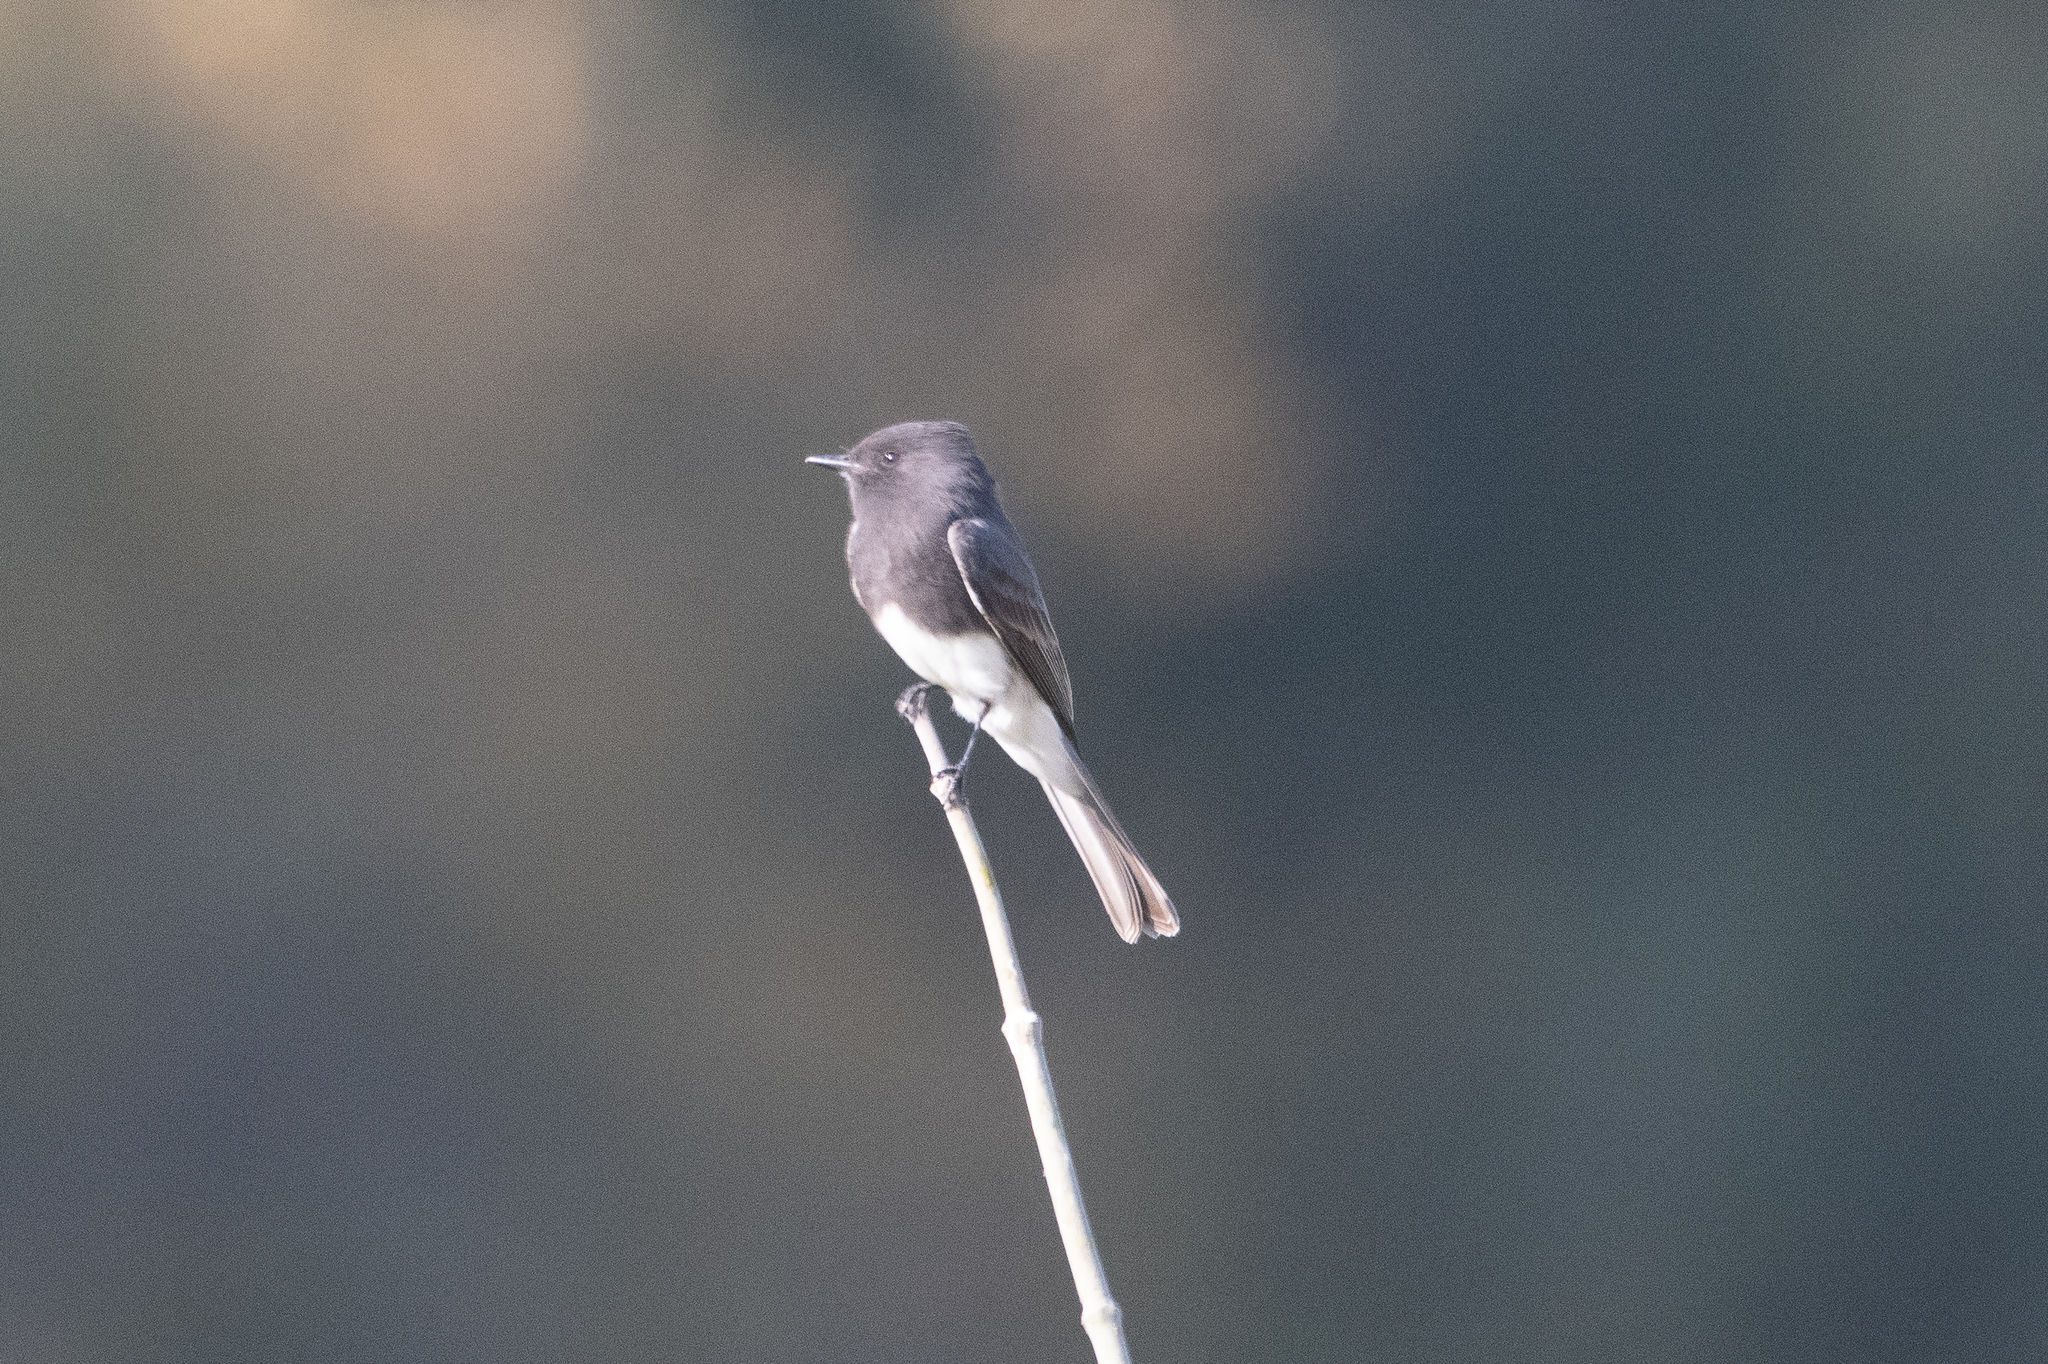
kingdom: Animalia
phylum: Chordata
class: Aves
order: Passeriformes
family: Tyrannidae
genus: Sayornis
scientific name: Sayornis nigricans
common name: Black phoebe
